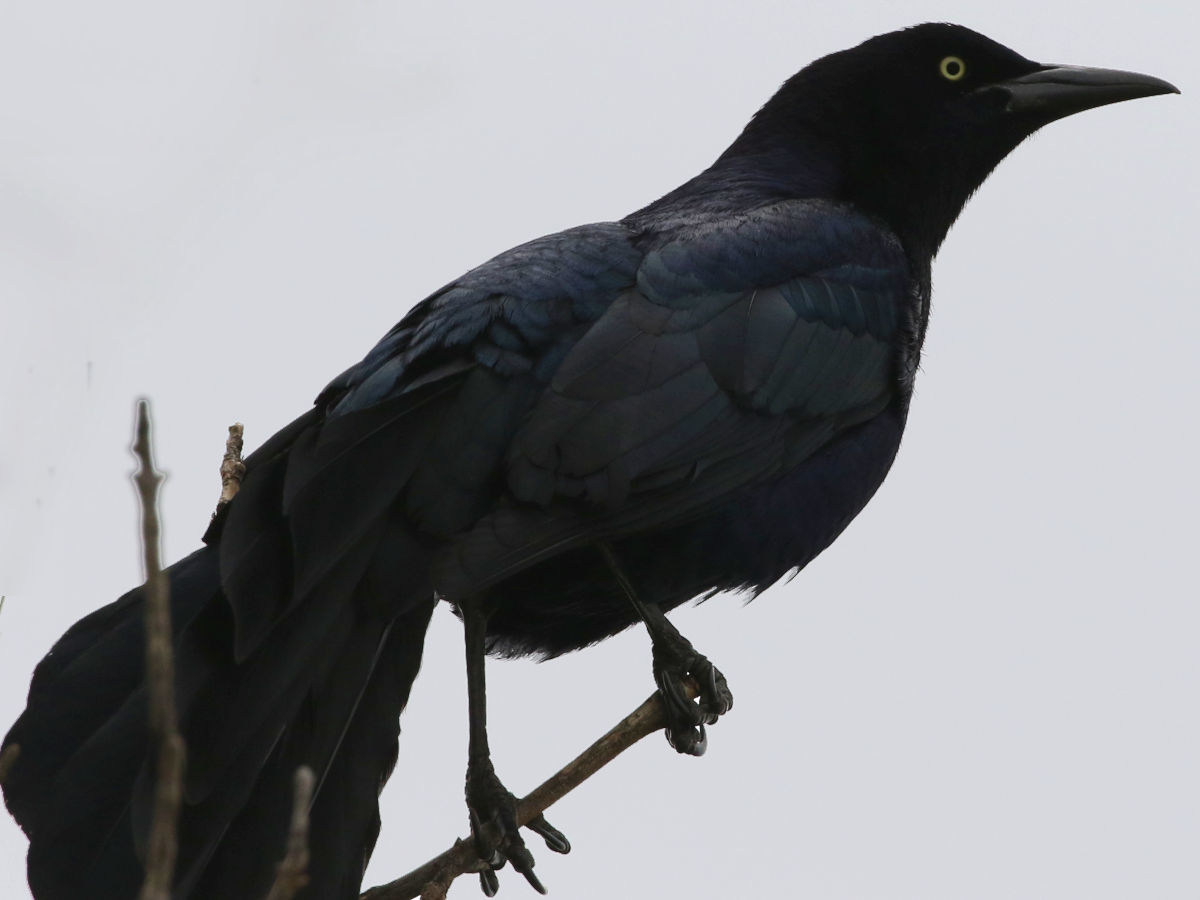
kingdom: Animalia
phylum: Chordata
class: Aves
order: Passeriformes
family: Icteridae
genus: Quiscalus
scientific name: Quiscalus mexicanus
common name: Great-tailed grackle
